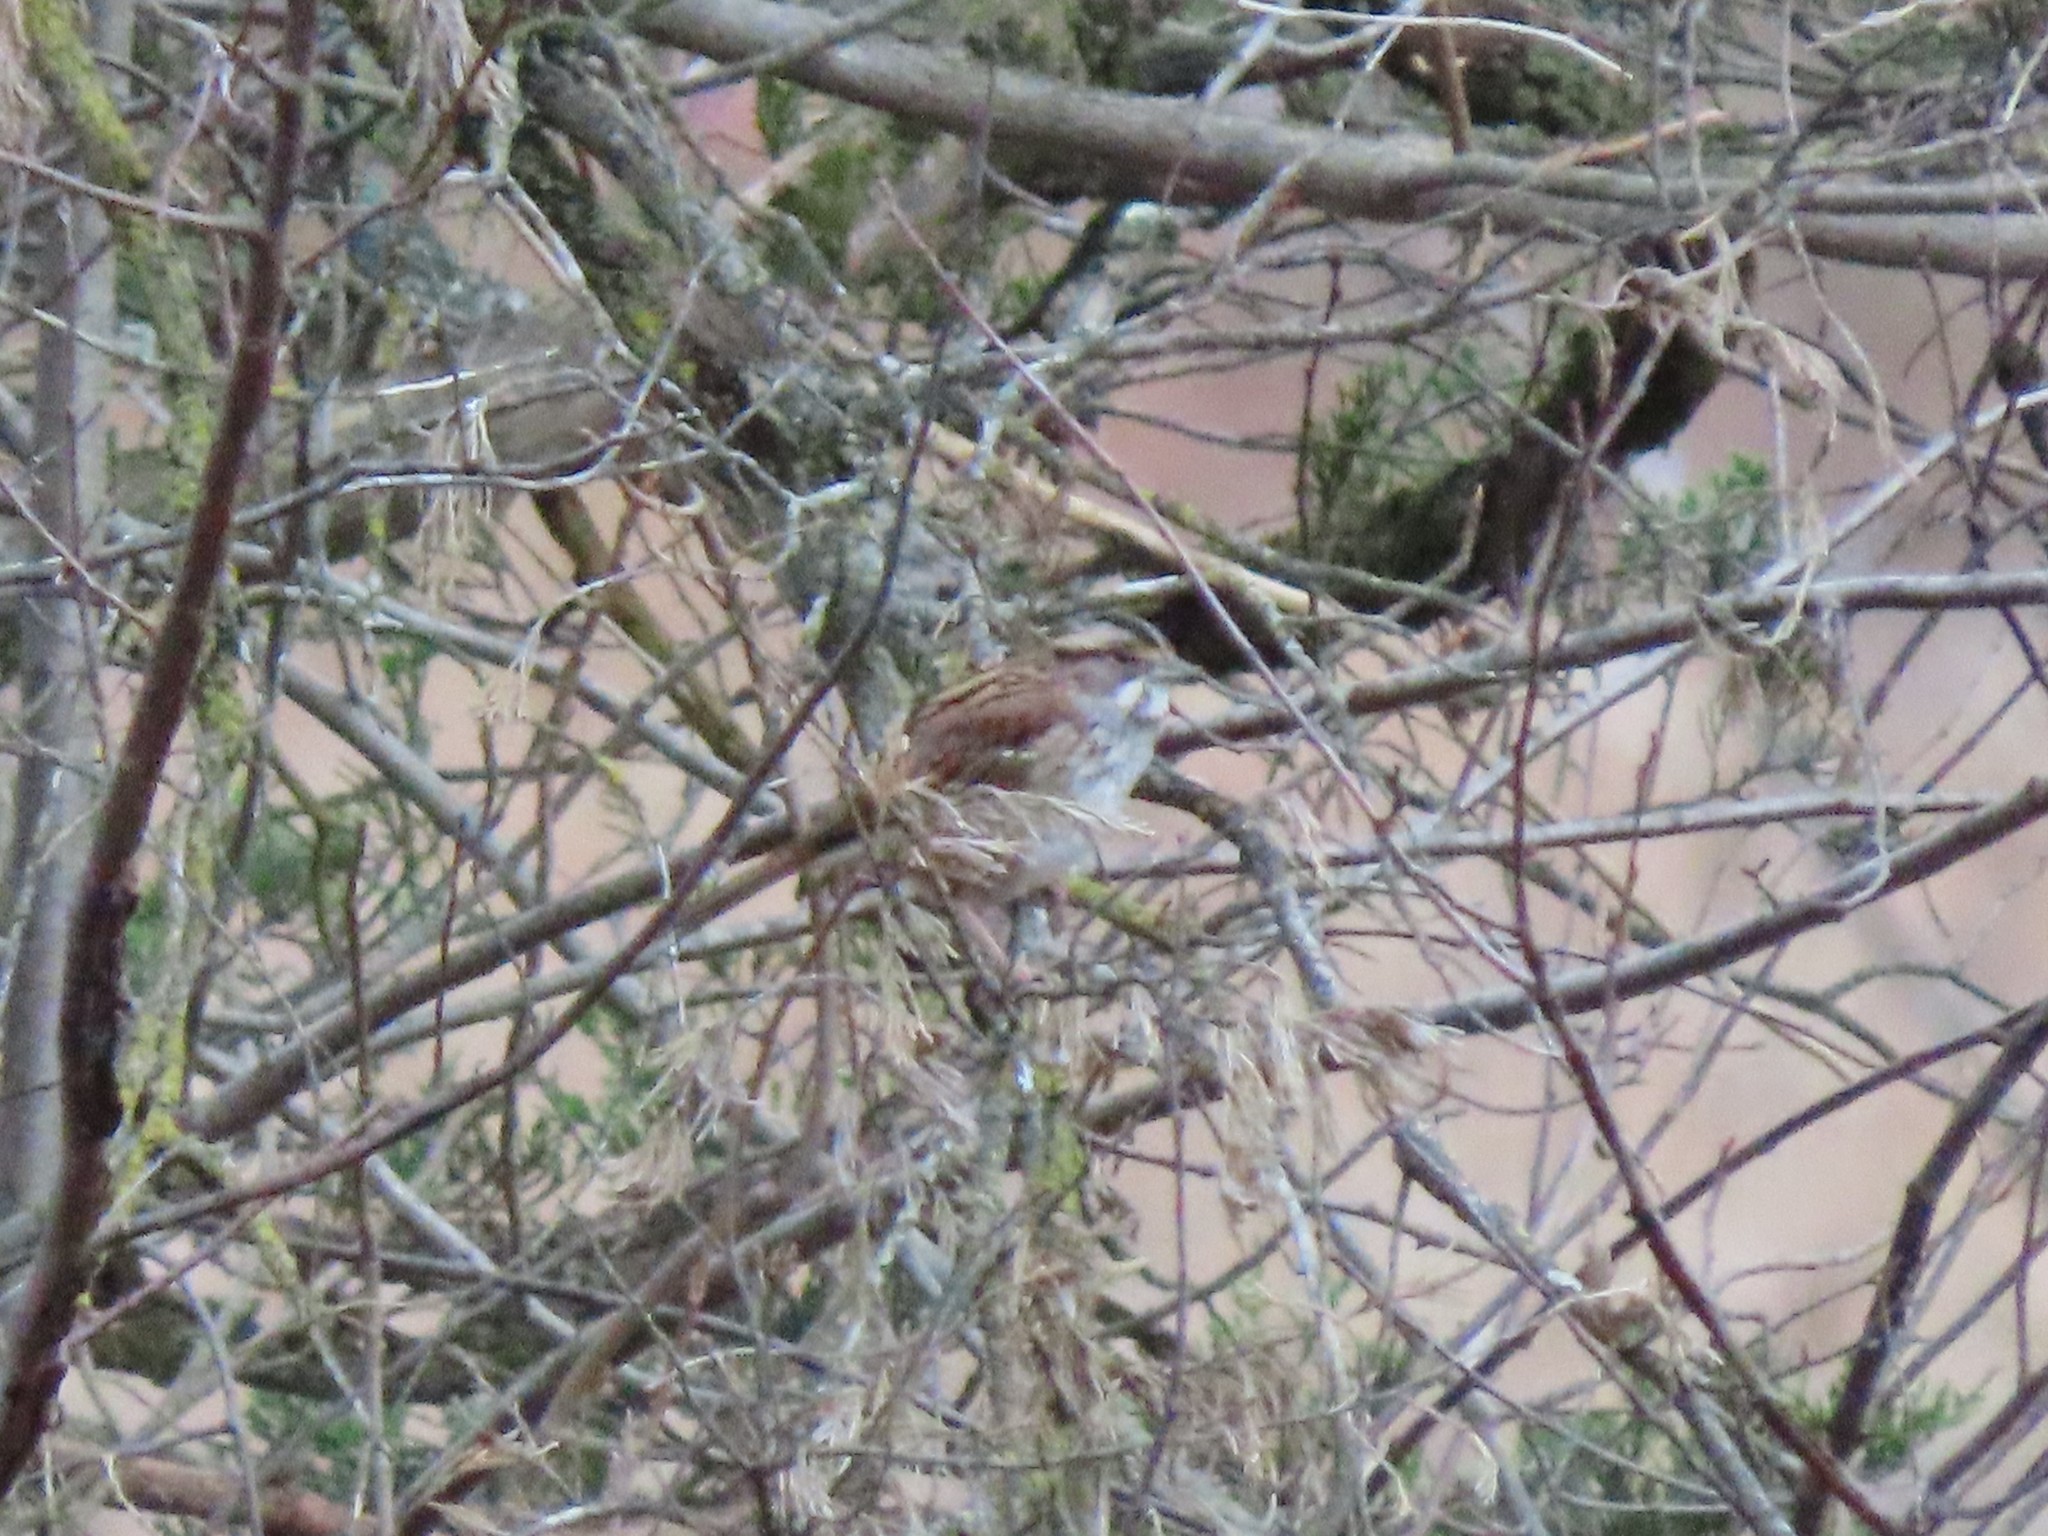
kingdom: Animalia
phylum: Chordata
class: Aves
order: Passeriformes
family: Passerellidae
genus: Zonotrichia
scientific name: Zonotrichia albicollis
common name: White-throated sparrow
